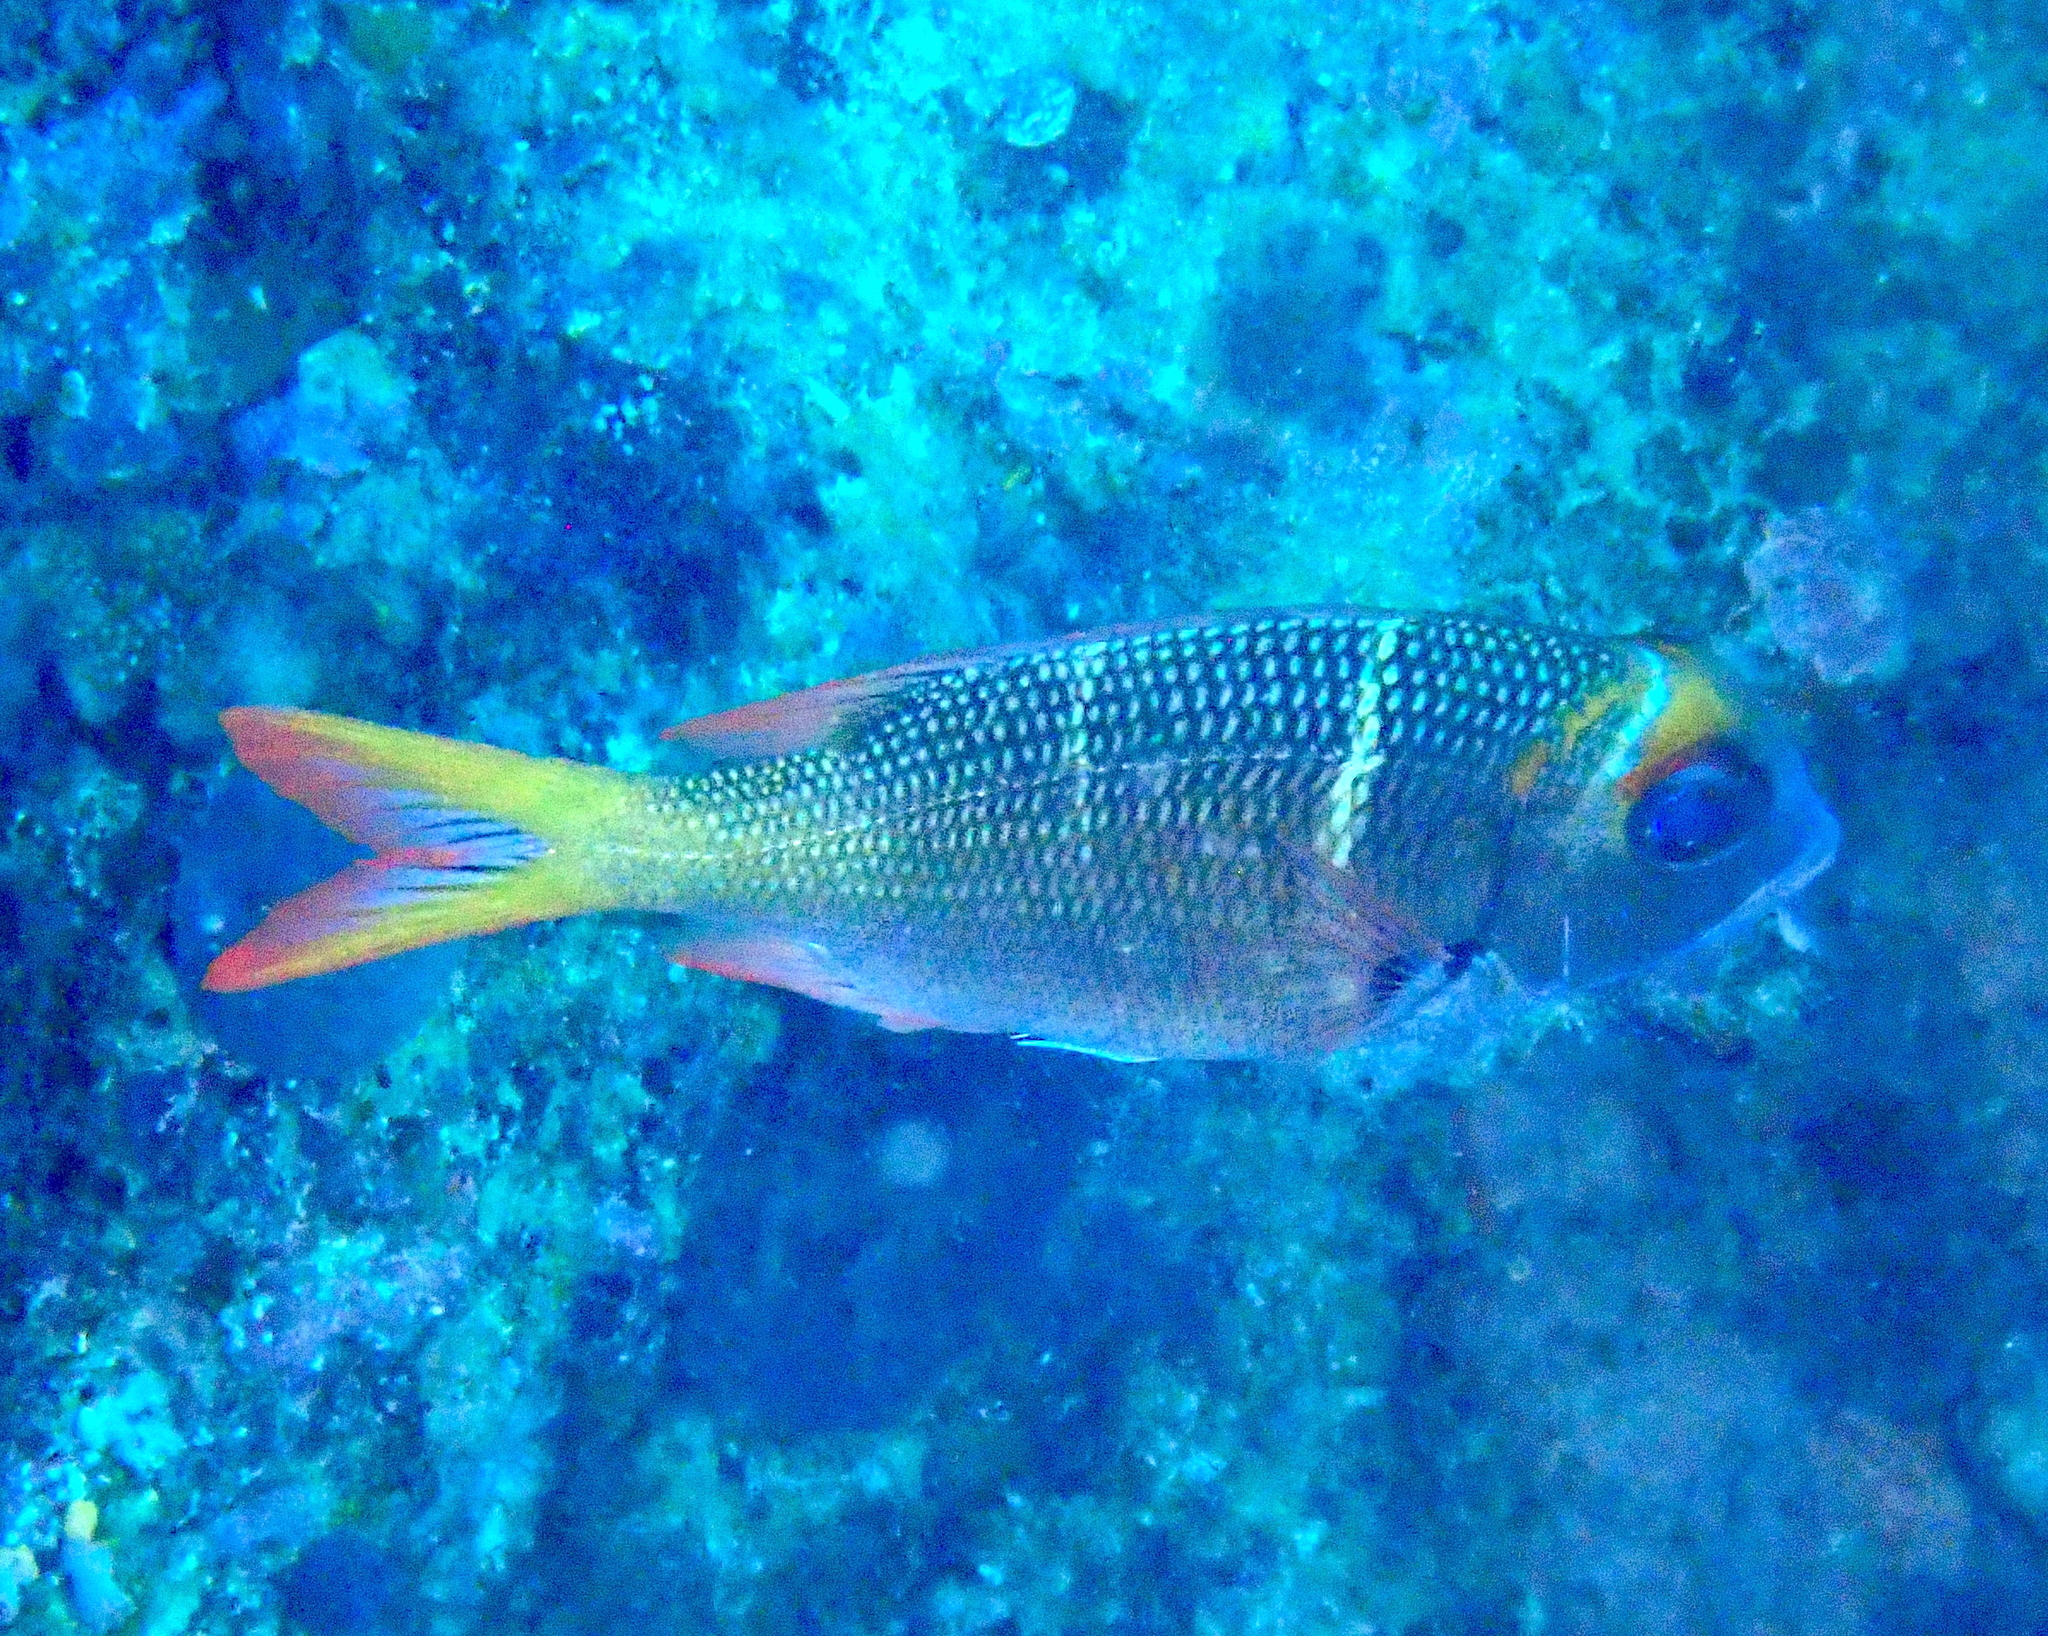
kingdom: Animalia
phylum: Chordata
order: Perciformes
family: Lethrinidae
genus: Monotaxis
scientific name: Monotaxis heterodon
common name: Redfin emperor
